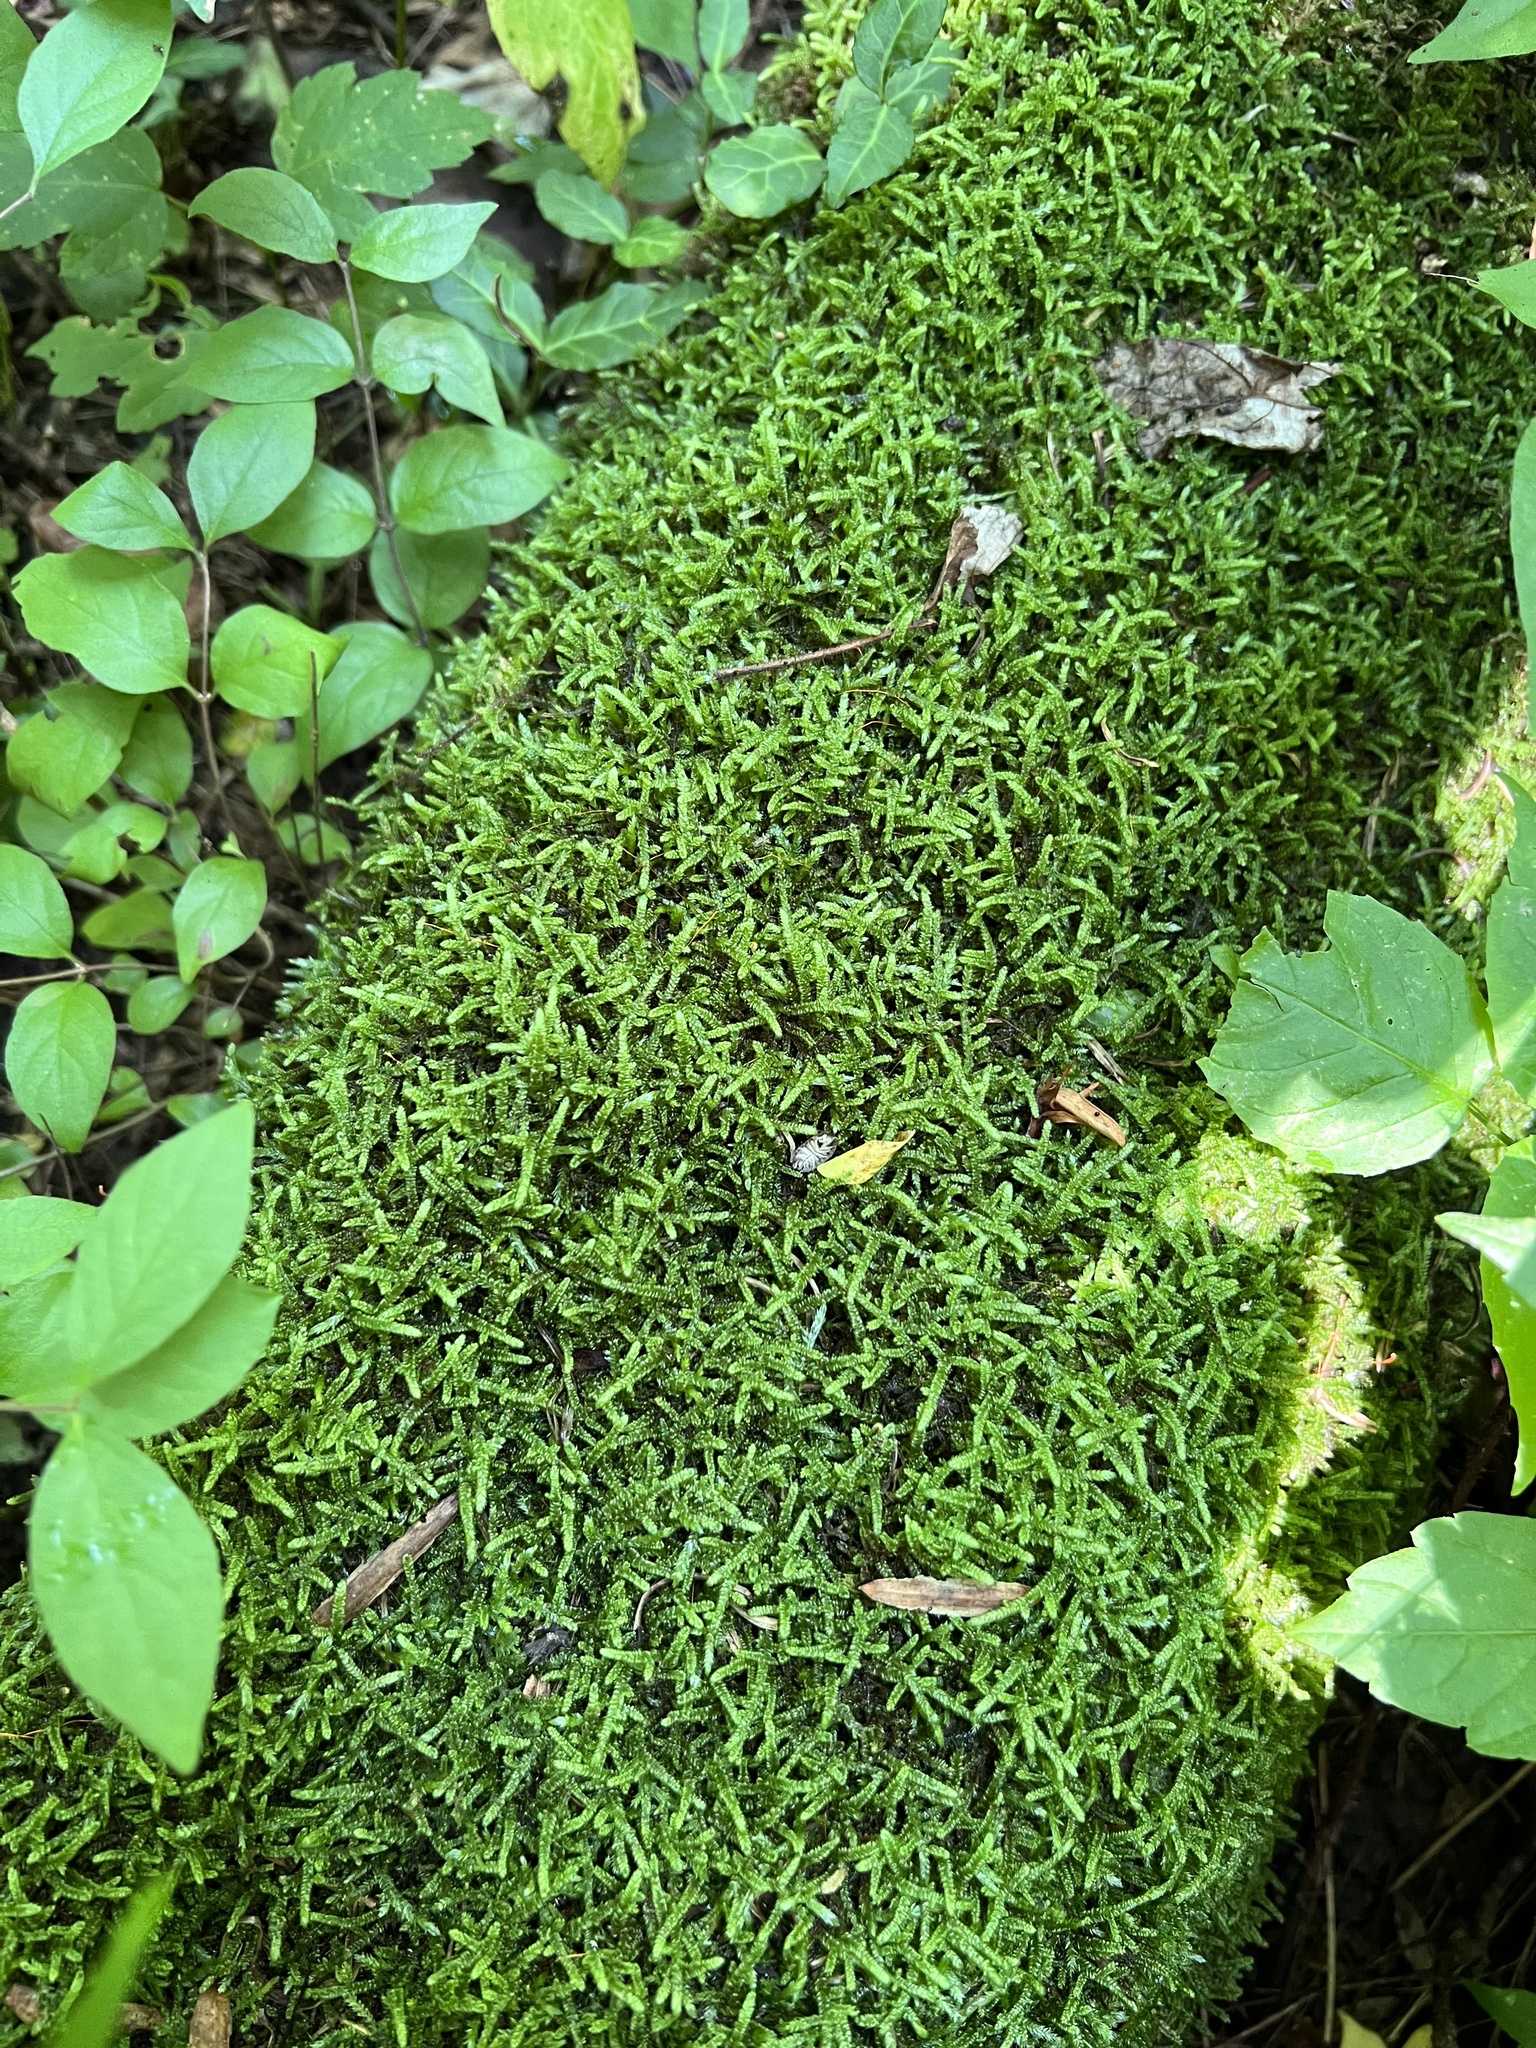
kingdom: Plantae
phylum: Bryophyta
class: Bryopsida
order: Hypnales
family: Callicladiaceae
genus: Callicladium
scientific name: Callicladium imponens
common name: Brocade moss
